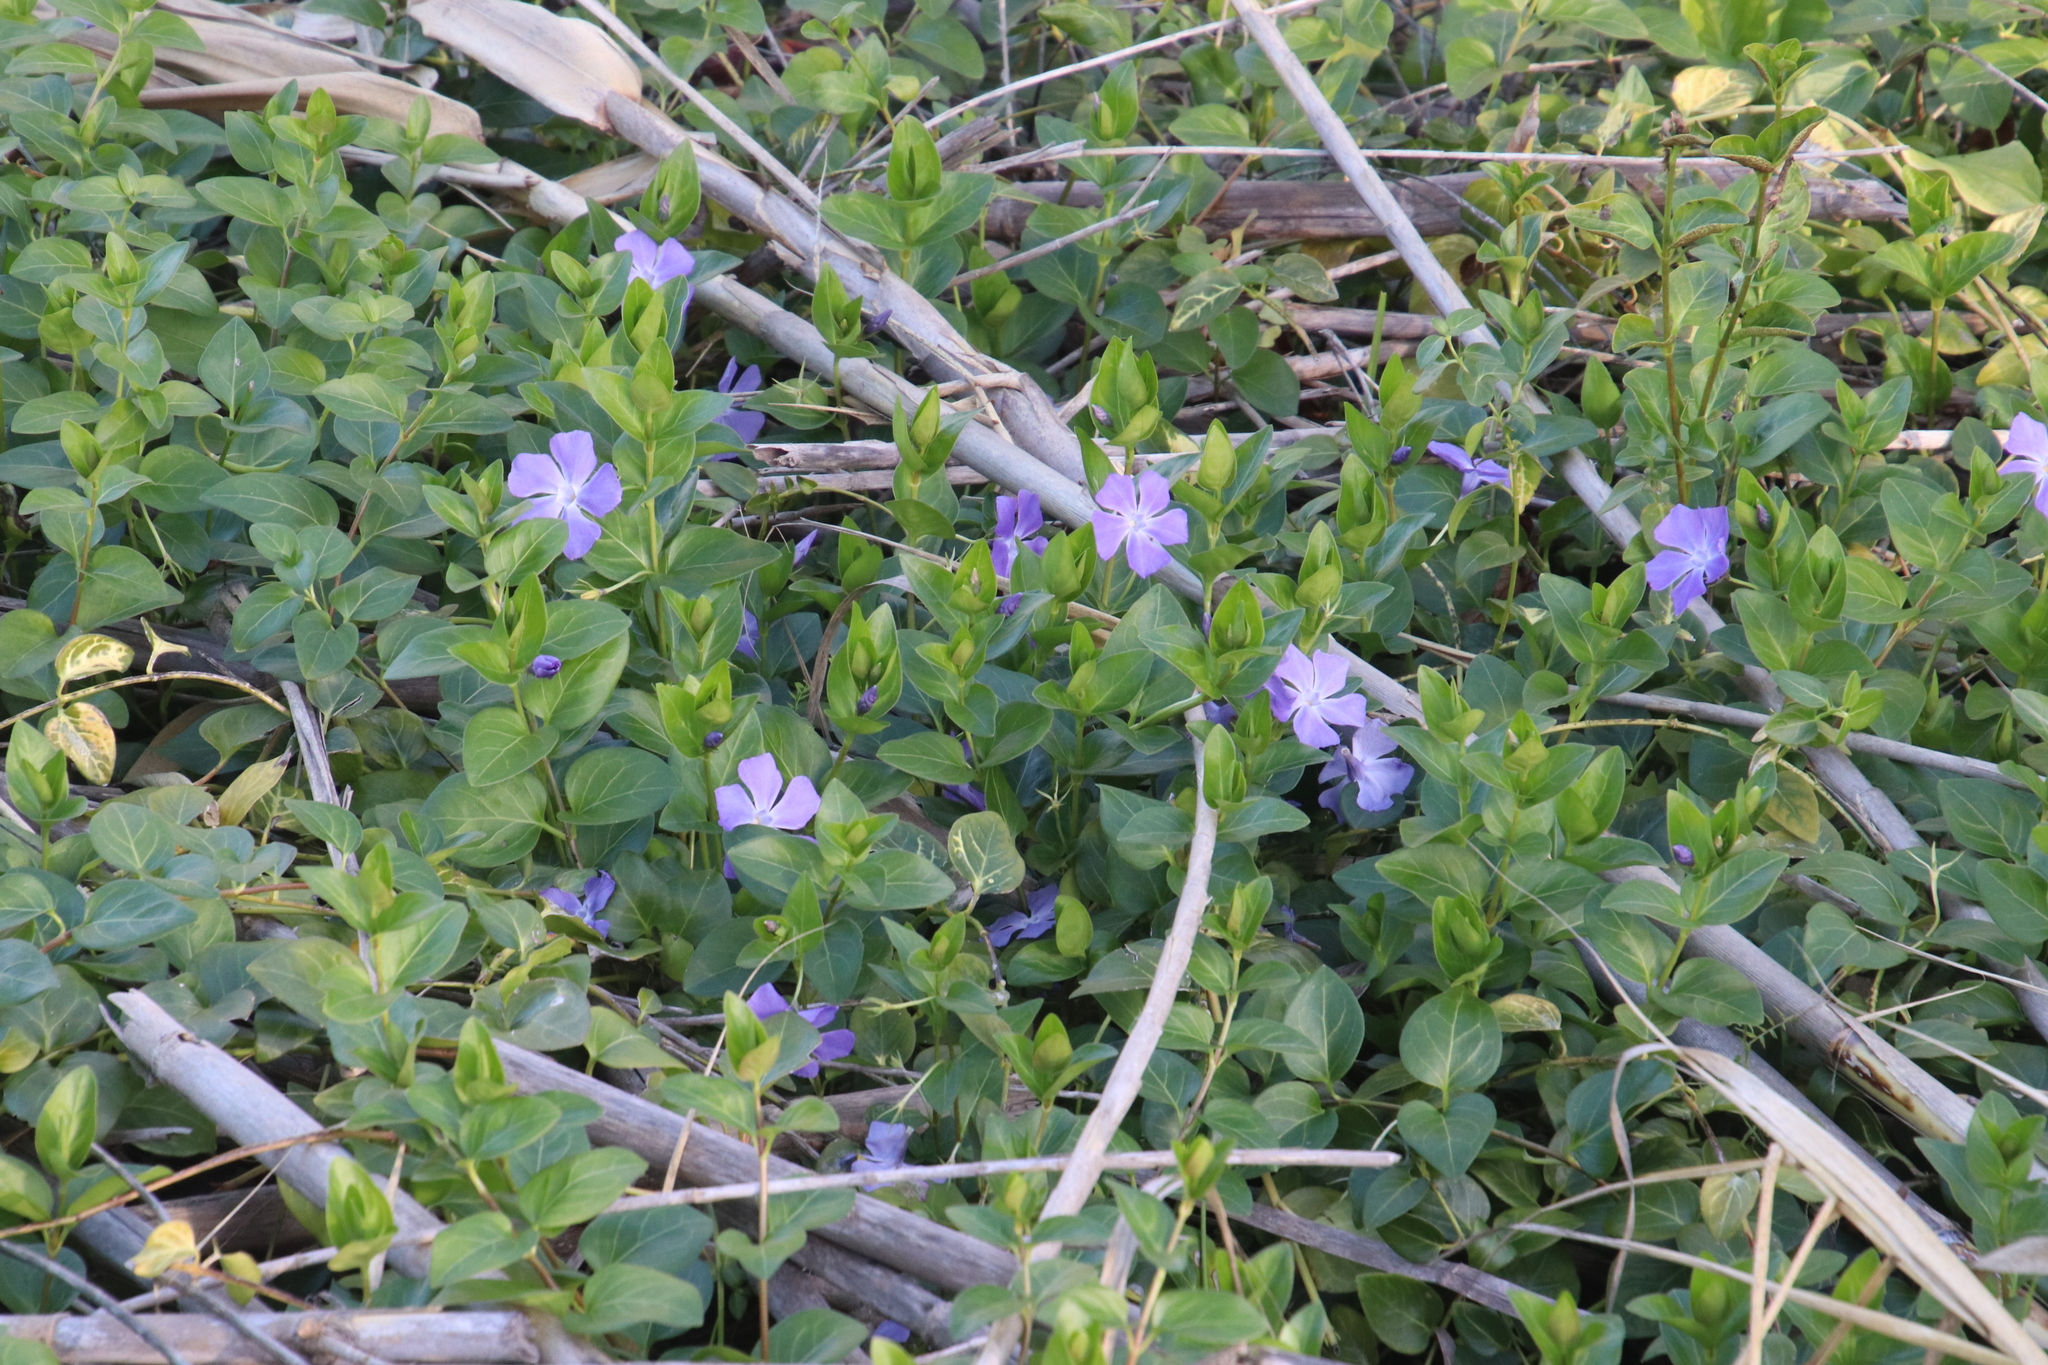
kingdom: Plantae
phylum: Tracheophyta
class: Magnoliopsida
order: Gentianales
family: Apocynaceae
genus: Vinca
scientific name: Vinca major
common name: Greater periwinkle
